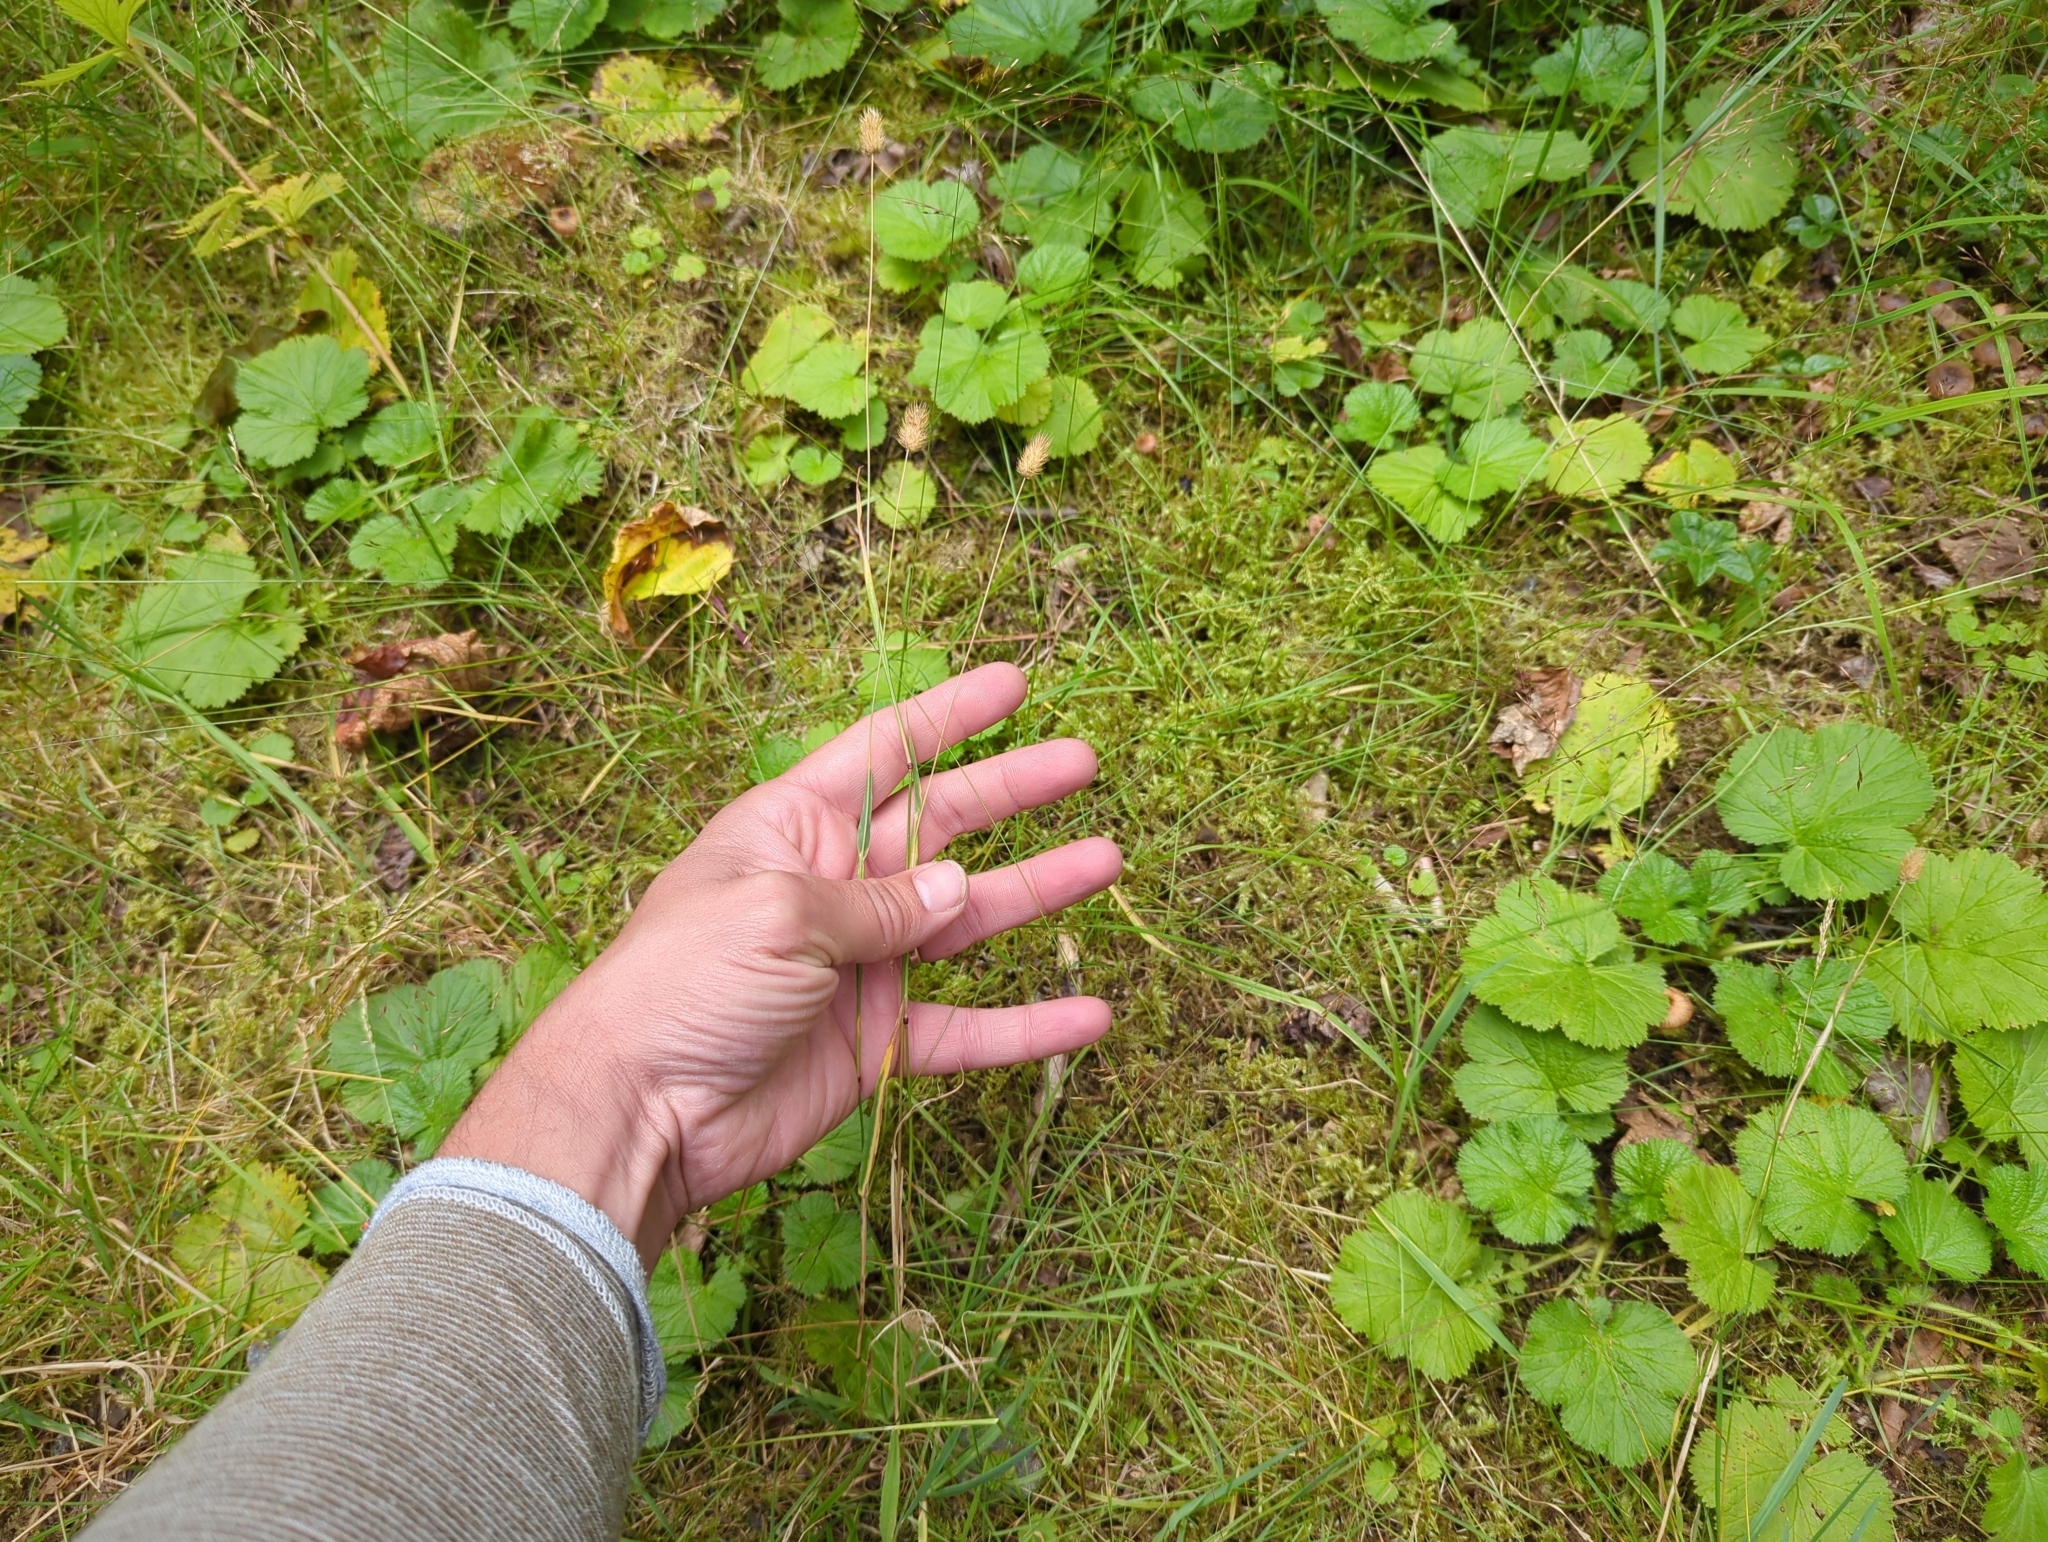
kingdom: Plantae
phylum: Tracheophyta
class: Liliopsida
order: Poales
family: Poaceae
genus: Phleum
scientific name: Phleum alpinum
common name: Alpine cat's-tail
